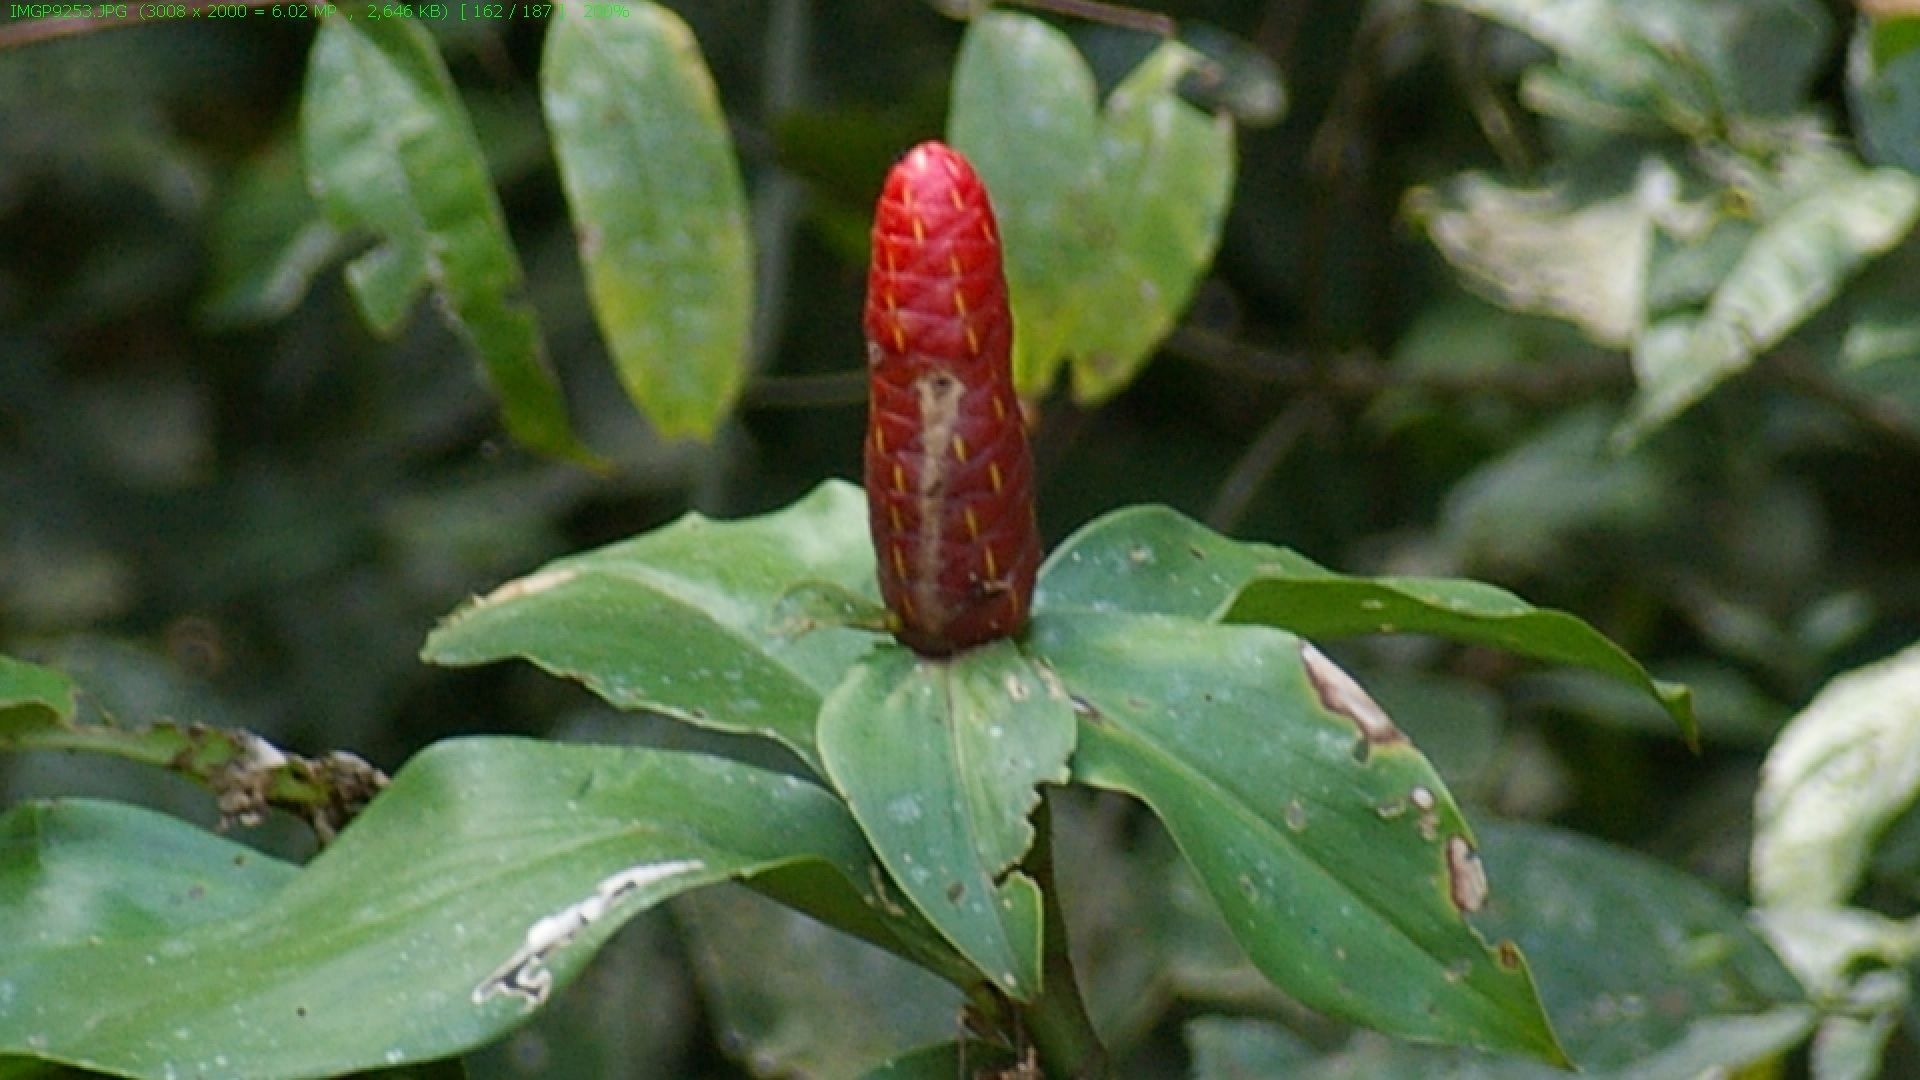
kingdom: Plantae
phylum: Tracheophyta
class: Liliopsida
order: Zingiberales
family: Costaceae
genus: Costus
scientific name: Costus scaber
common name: Spiral head ginger
